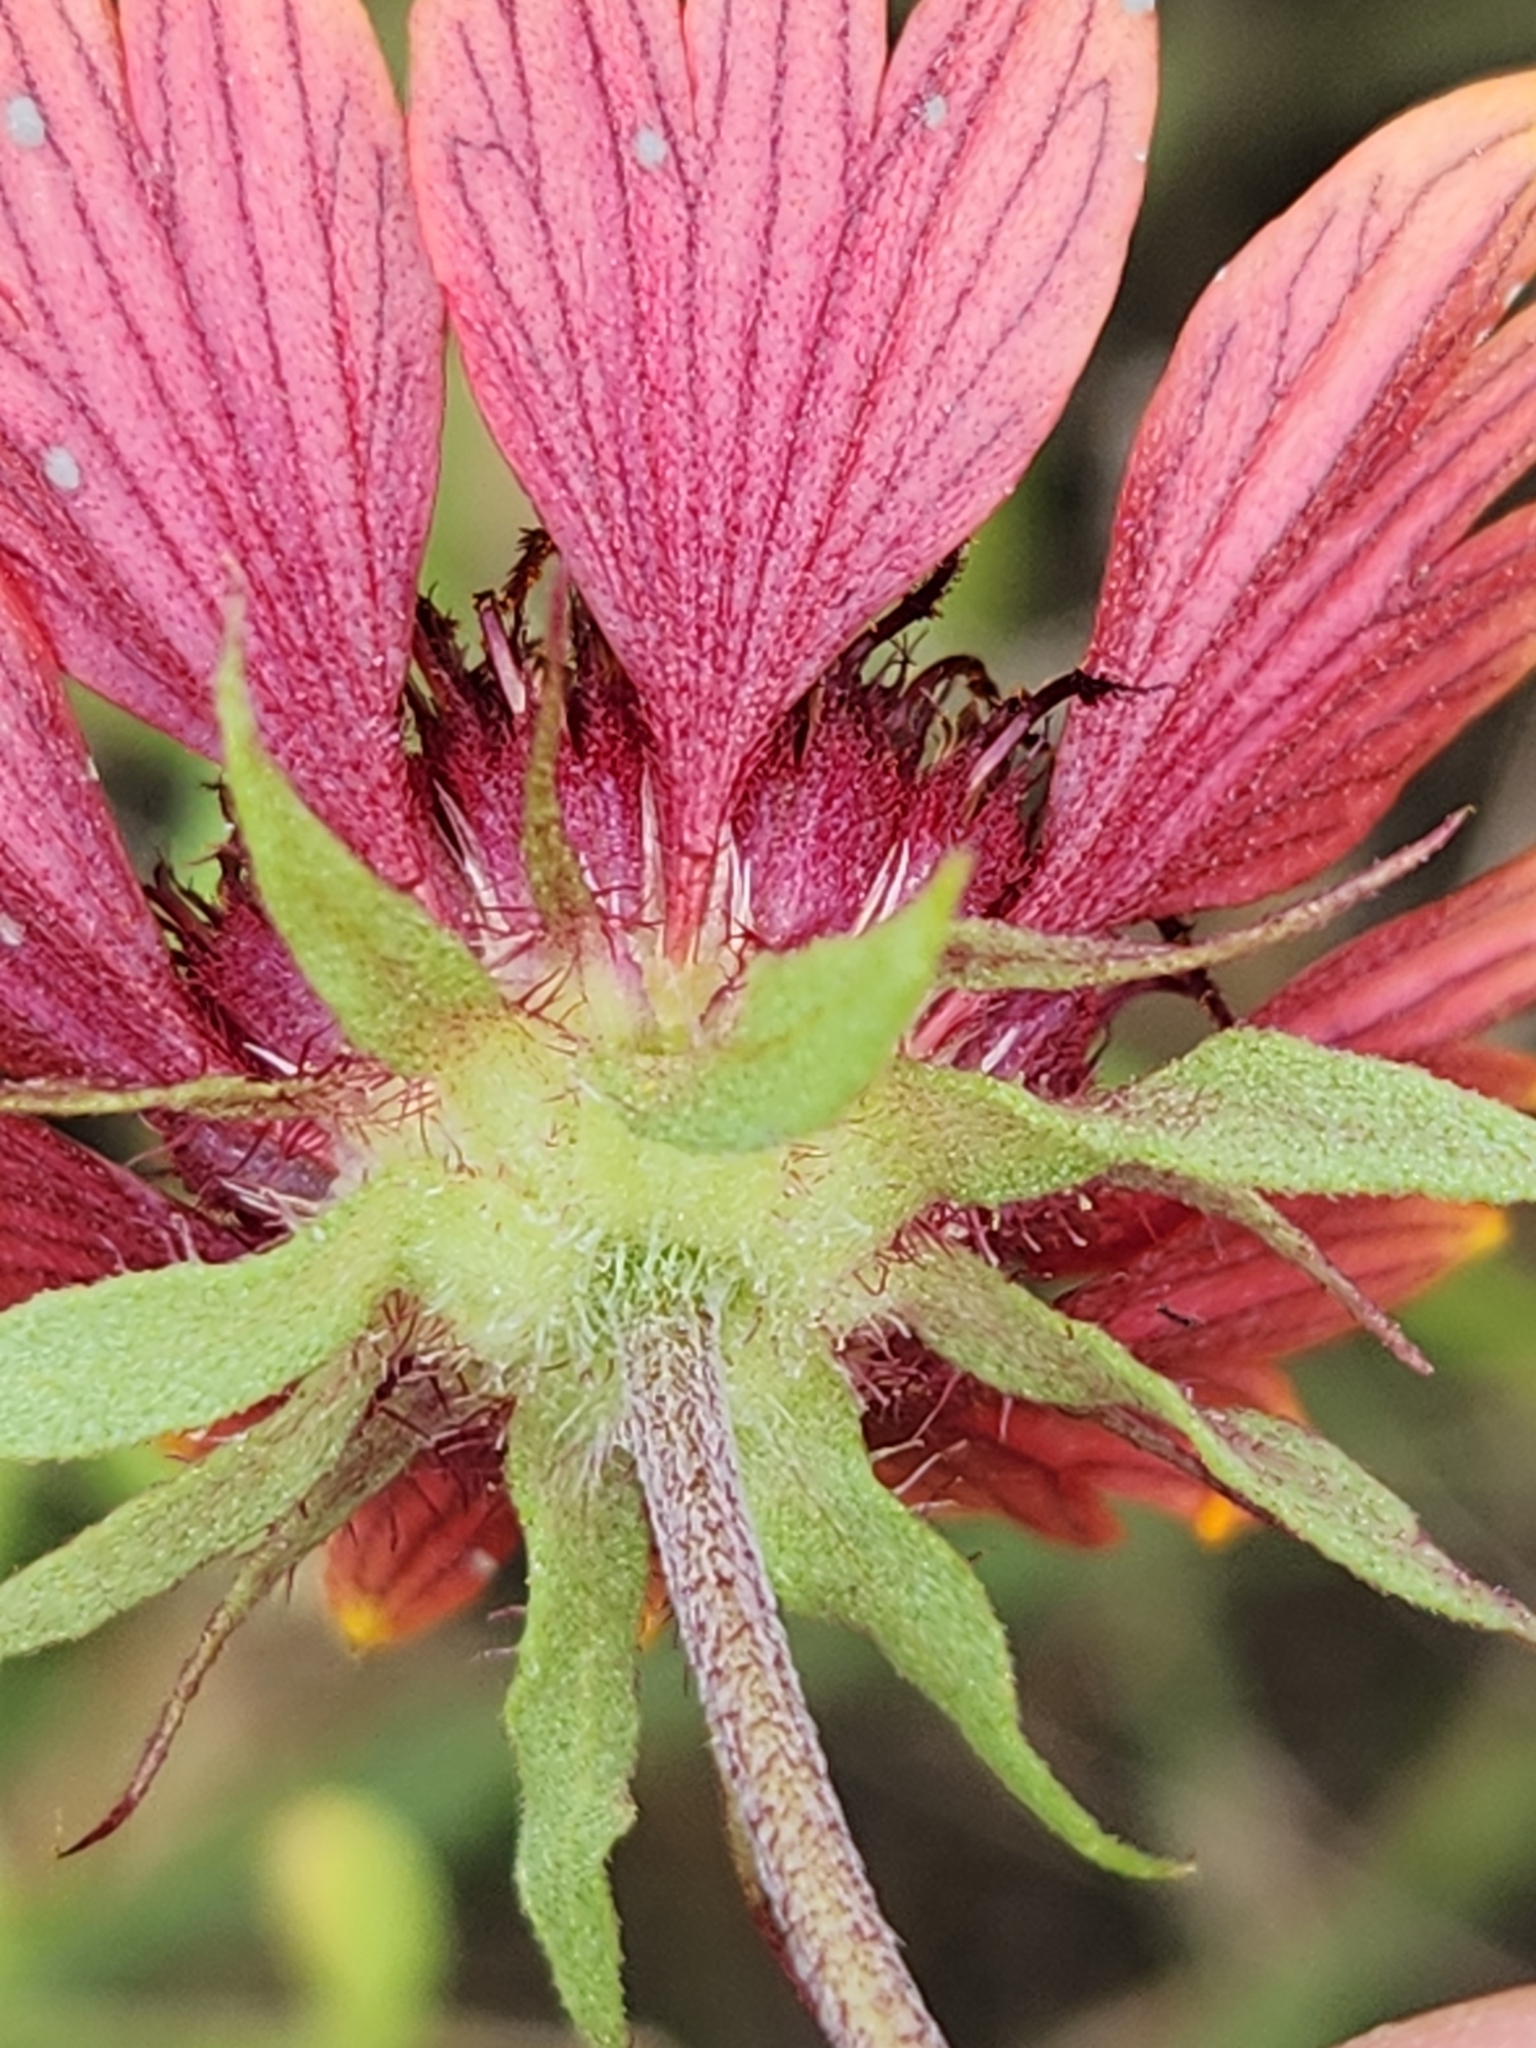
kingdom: Plantae
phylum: Tracheophyta
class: Magnoliopsida
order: Asterales
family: Asteraceae
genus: Gaillardia
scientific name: Gaillardia pulchella
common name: Firewheel
